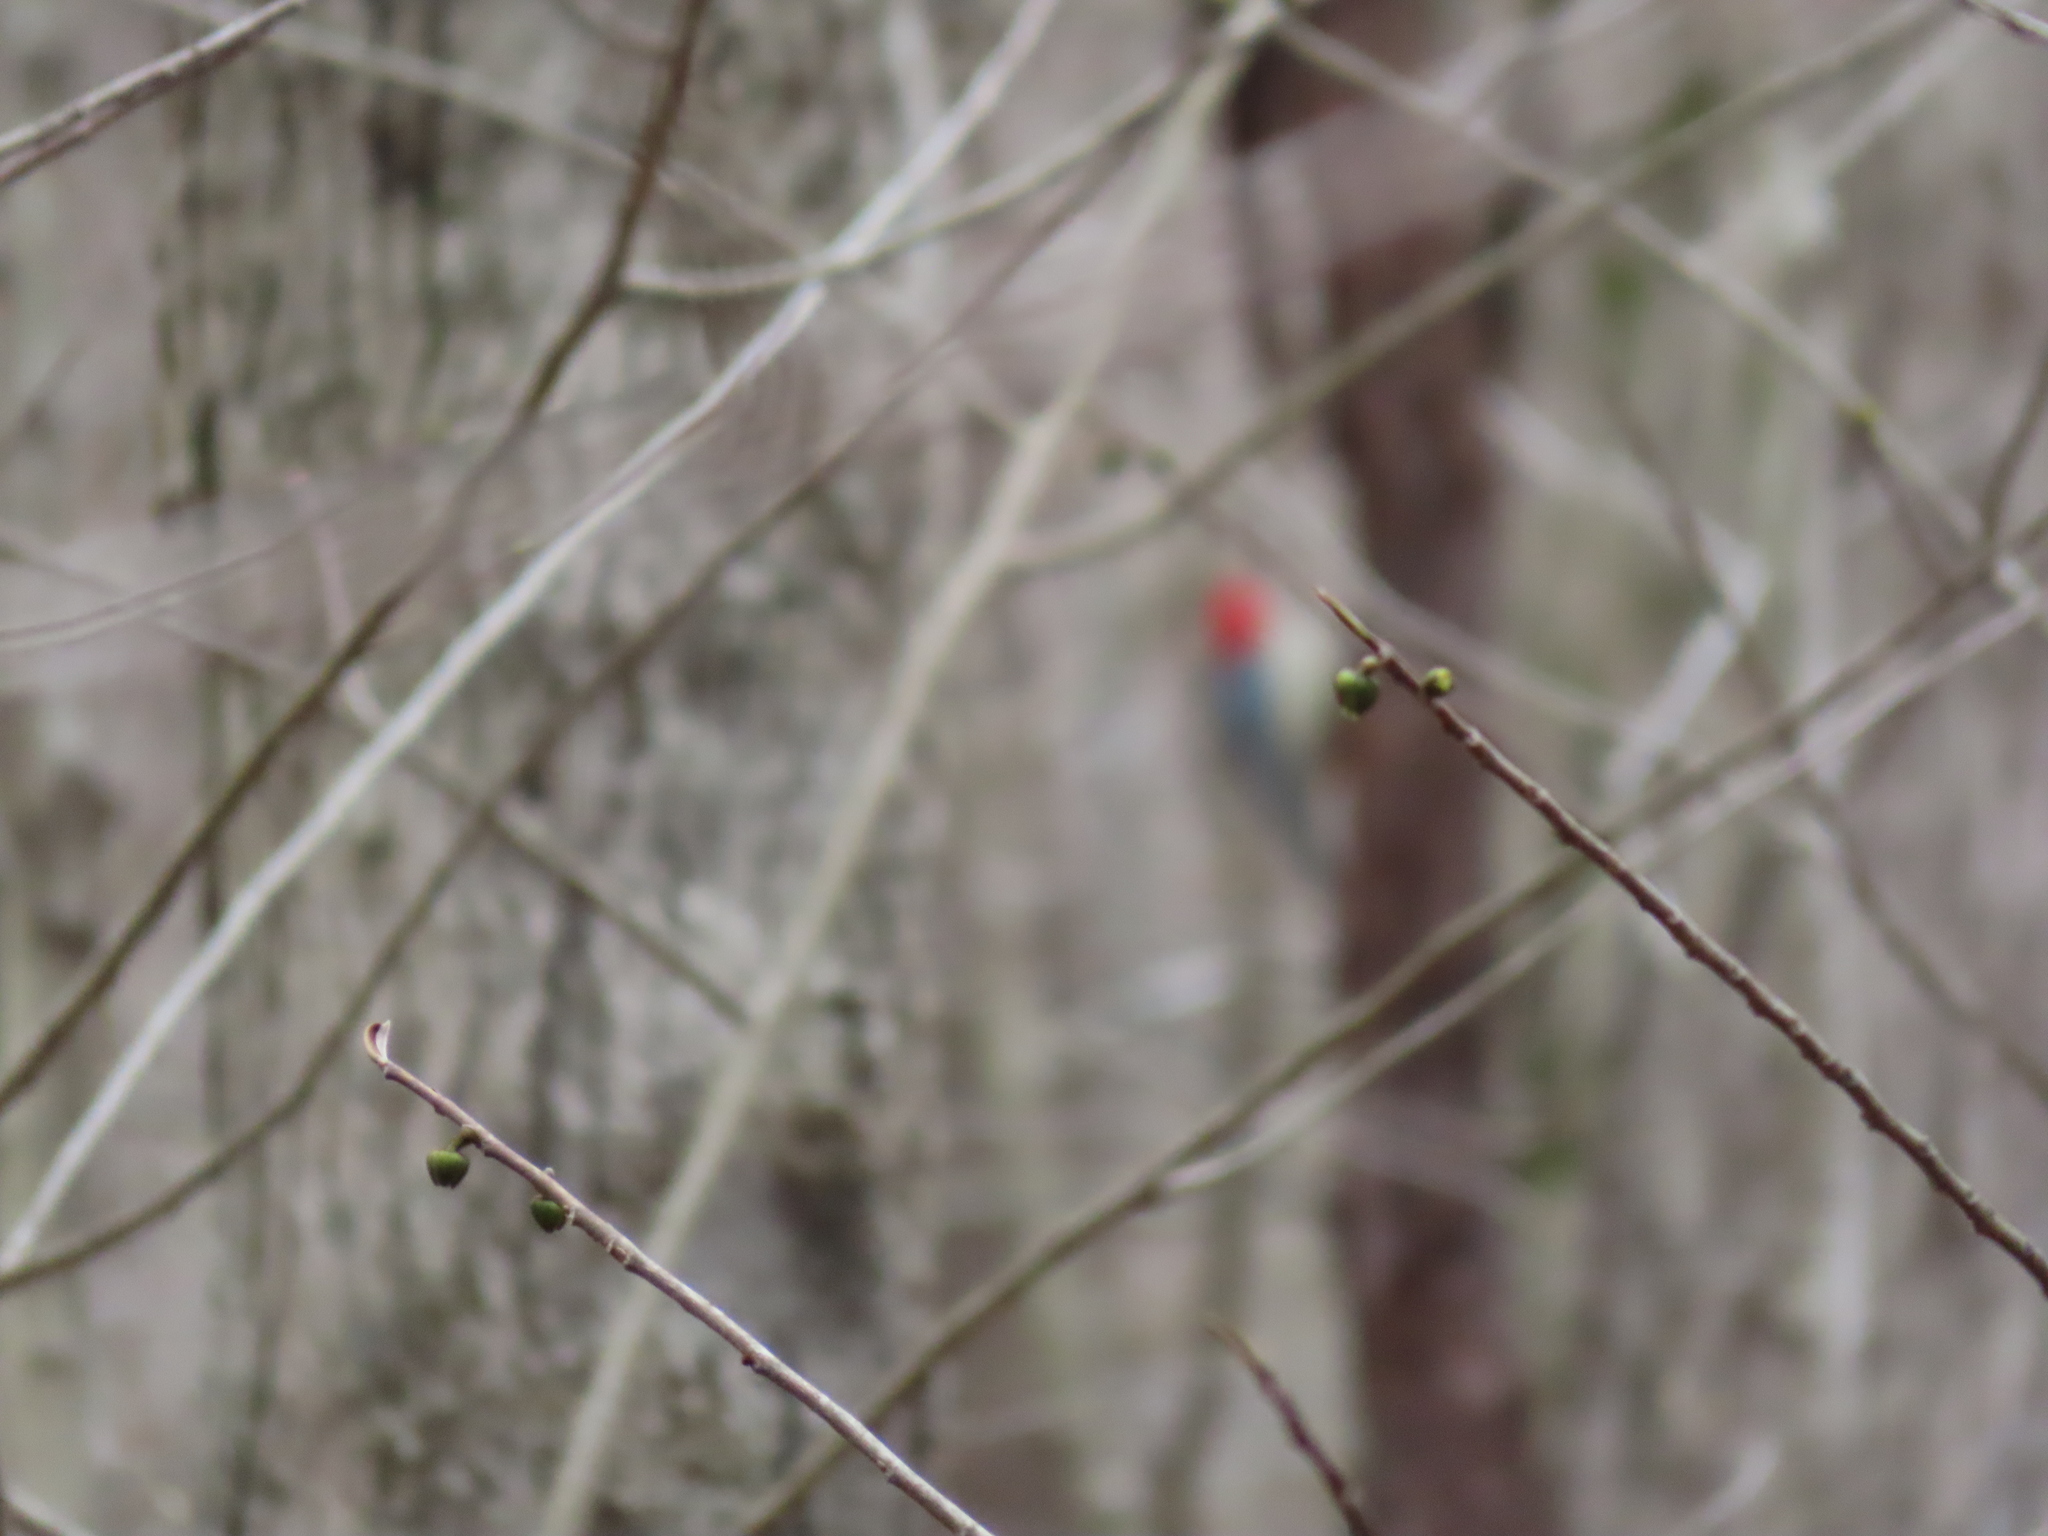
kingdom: Animalia
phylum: Chordata
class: Aves
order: Piciformes
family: Picidae
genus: Melanerpes
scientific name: Melanerpes carolinus
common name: Red-bellied woodpecker
